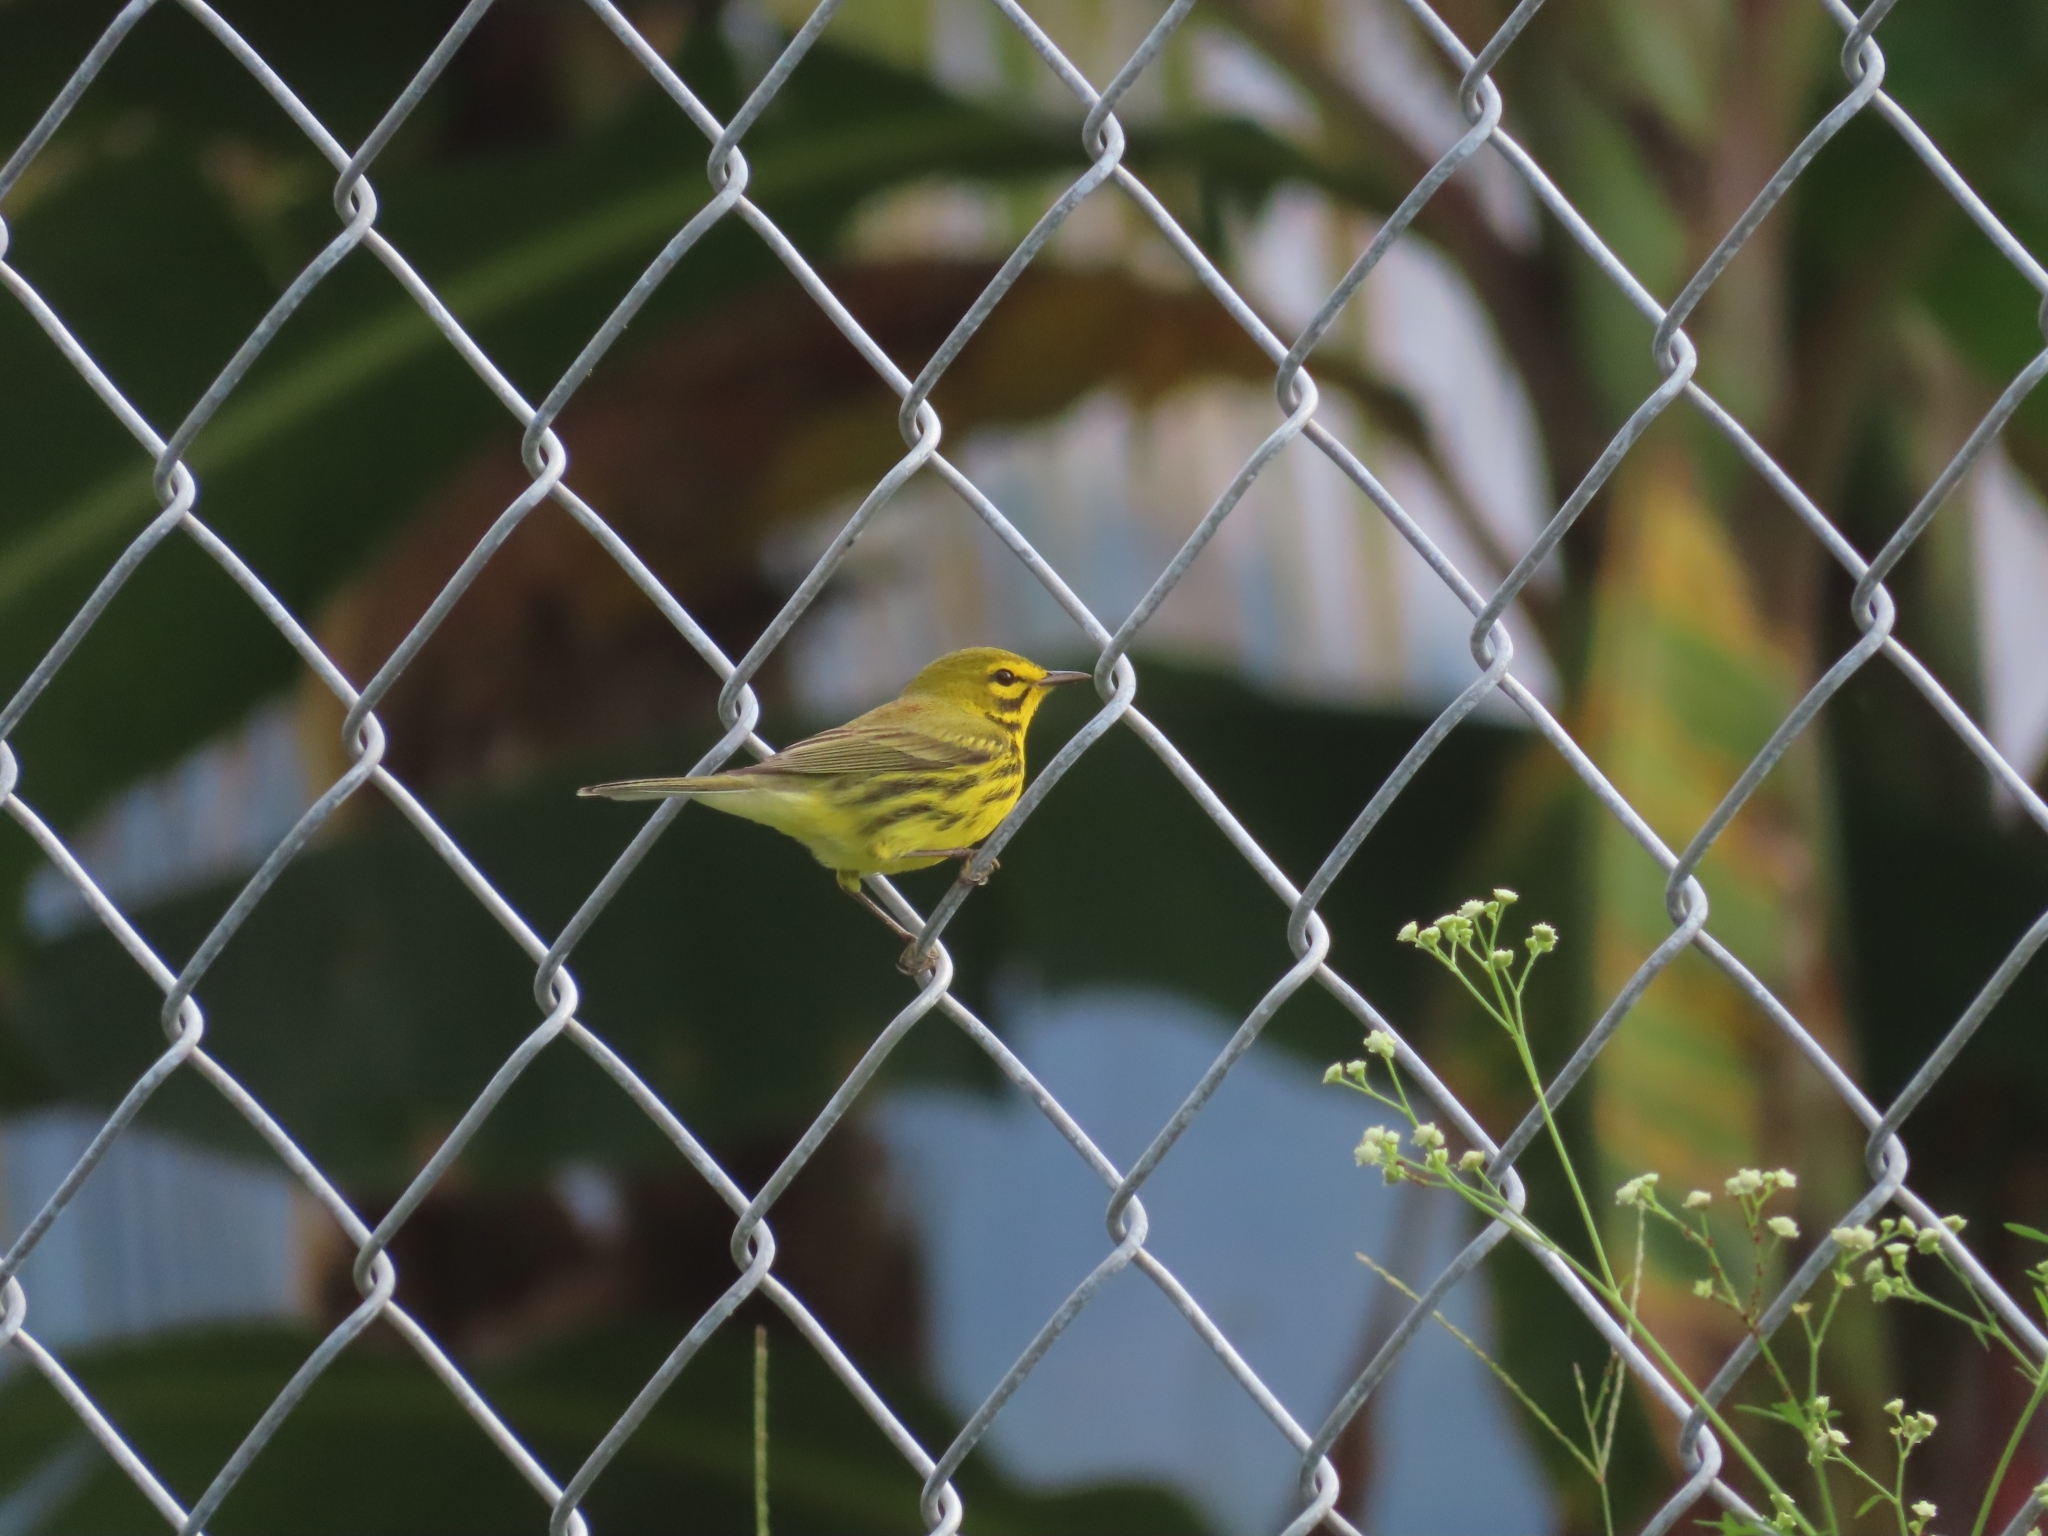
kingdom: Animalia
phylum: Chordata
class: Aves
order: Passeriformes
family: Parulidae
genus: Setophaga
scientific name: Setophaga discolor
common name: Prairie warbler
